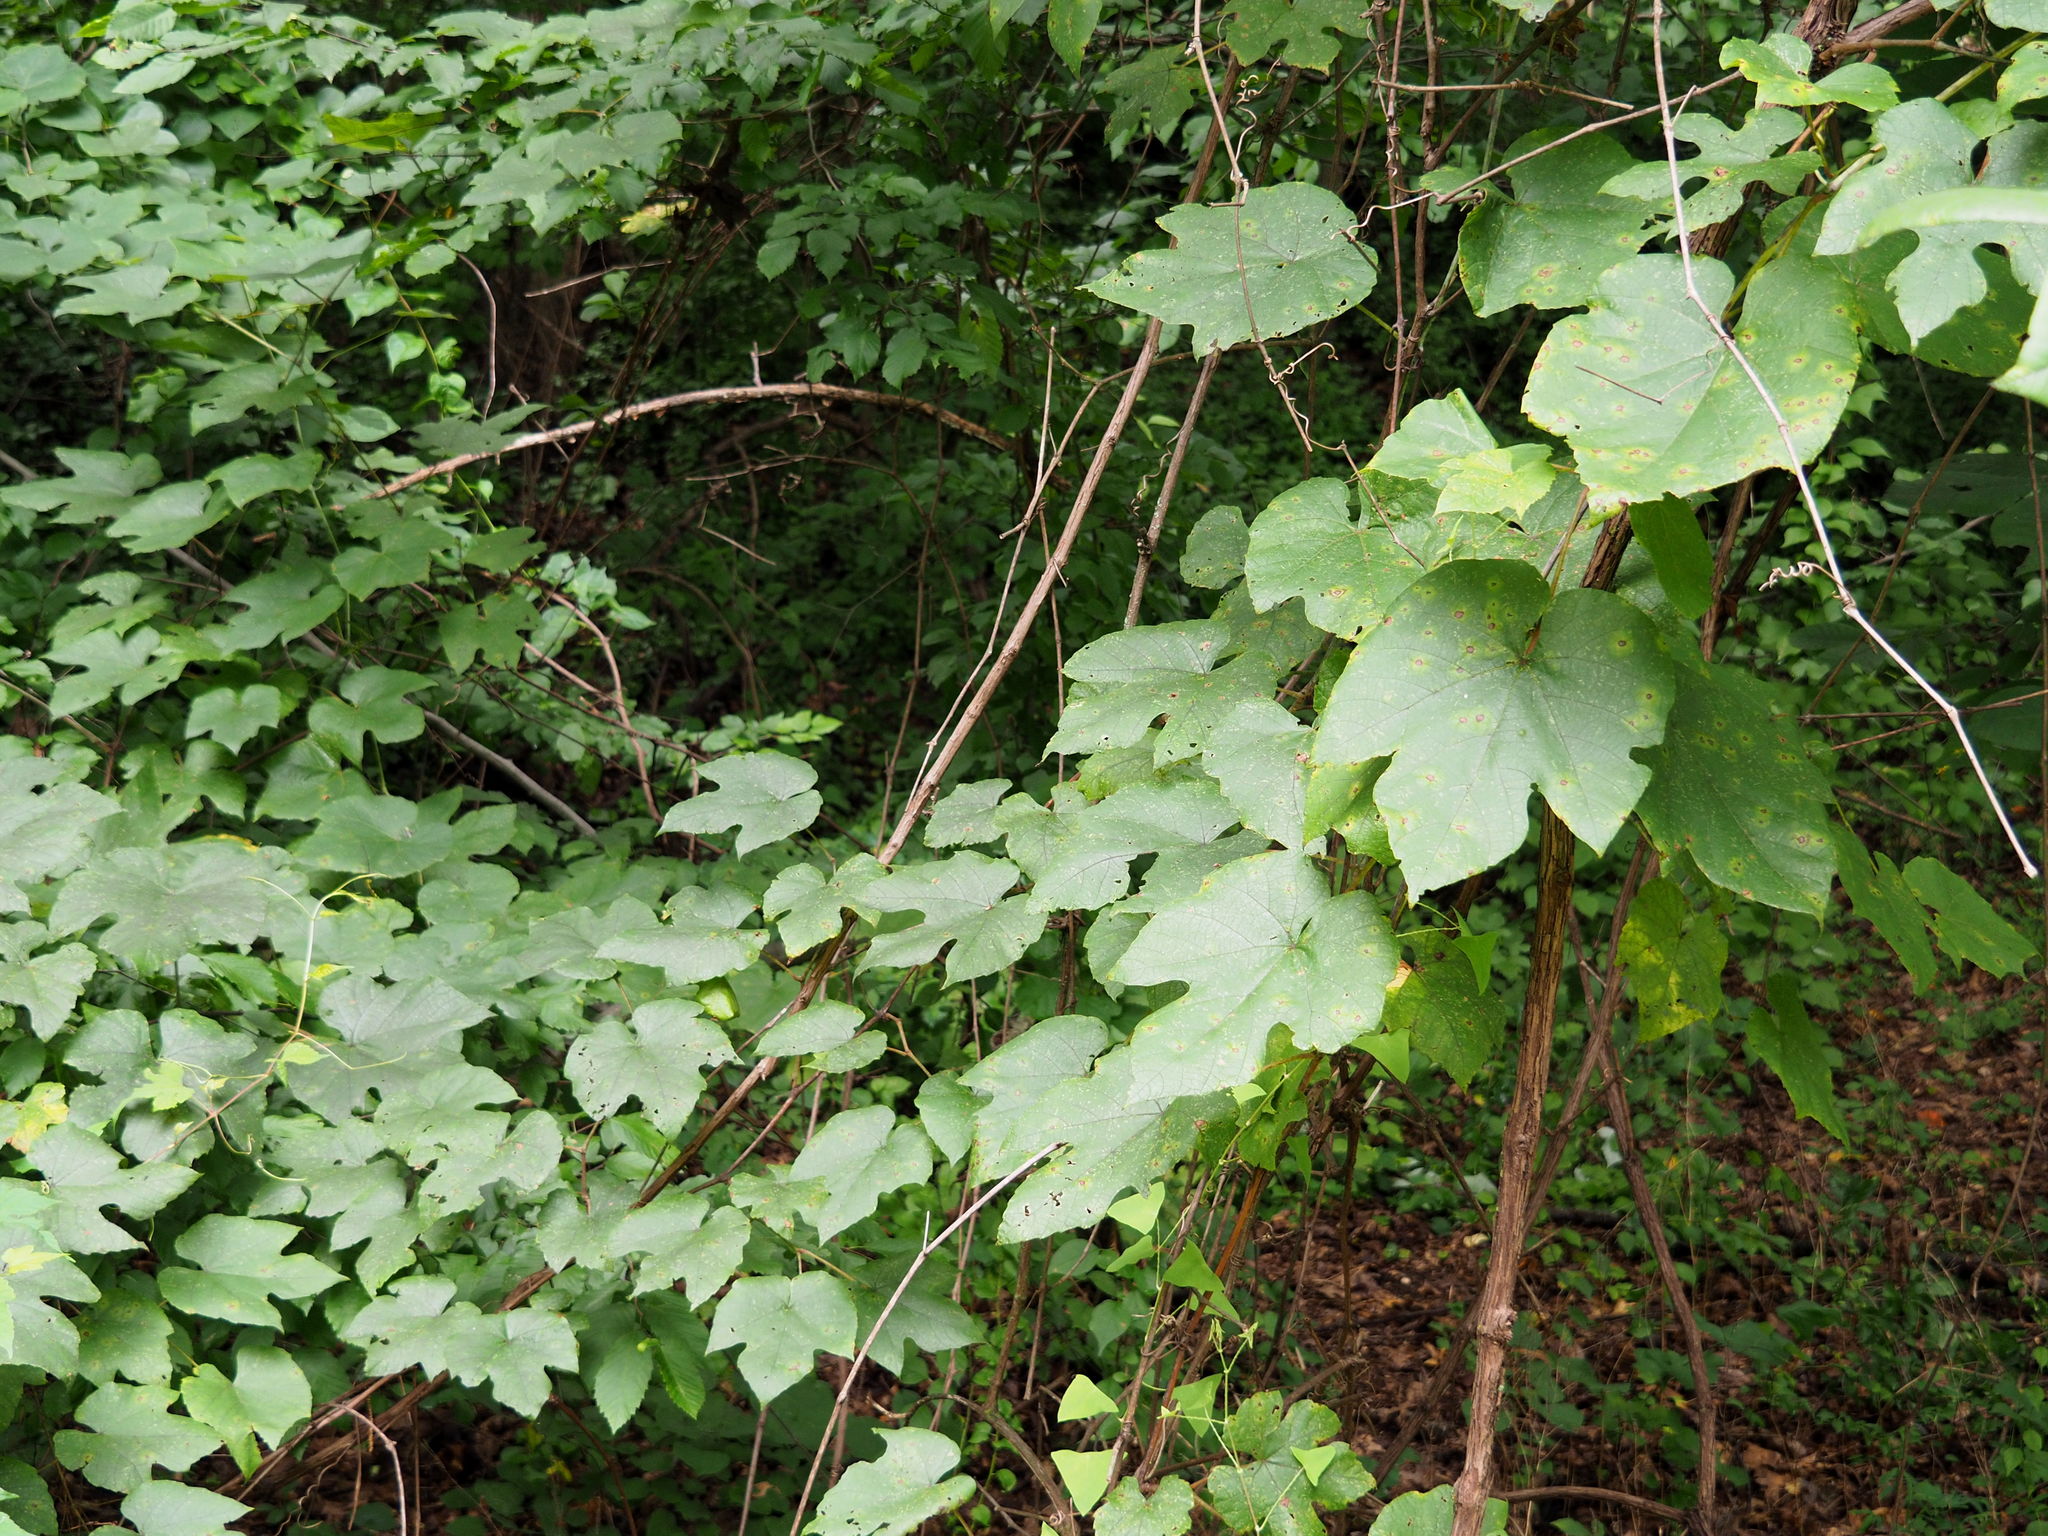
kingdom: Plantae
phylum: Tracheophyta
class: Magnoliopsida
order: Vitales
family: Vitaceae
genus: Vitis
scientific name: Vitis aestivalis
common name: Pigeon grape
